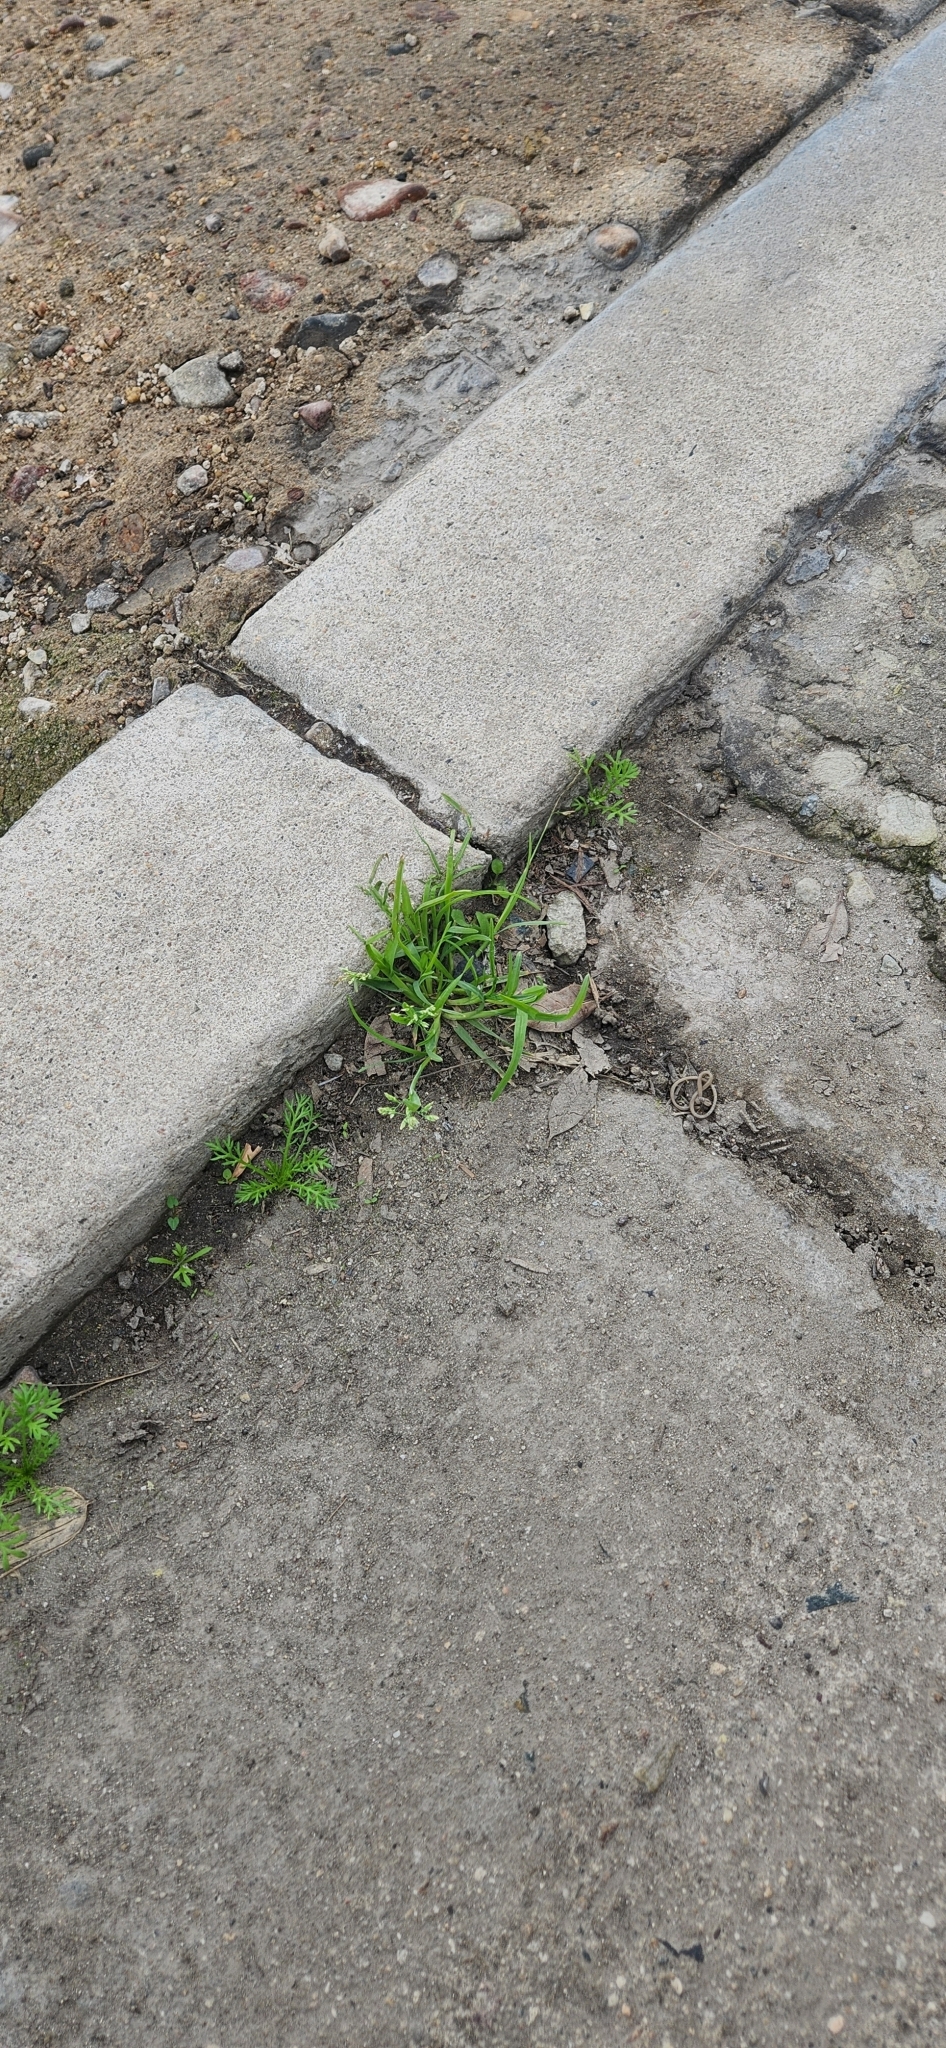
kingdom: Plantae
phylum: Tracheophyta
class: Liliopsida
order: Poales
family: Poaceae
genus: Poa
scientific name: Poa annua
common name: Annual bluegrass
